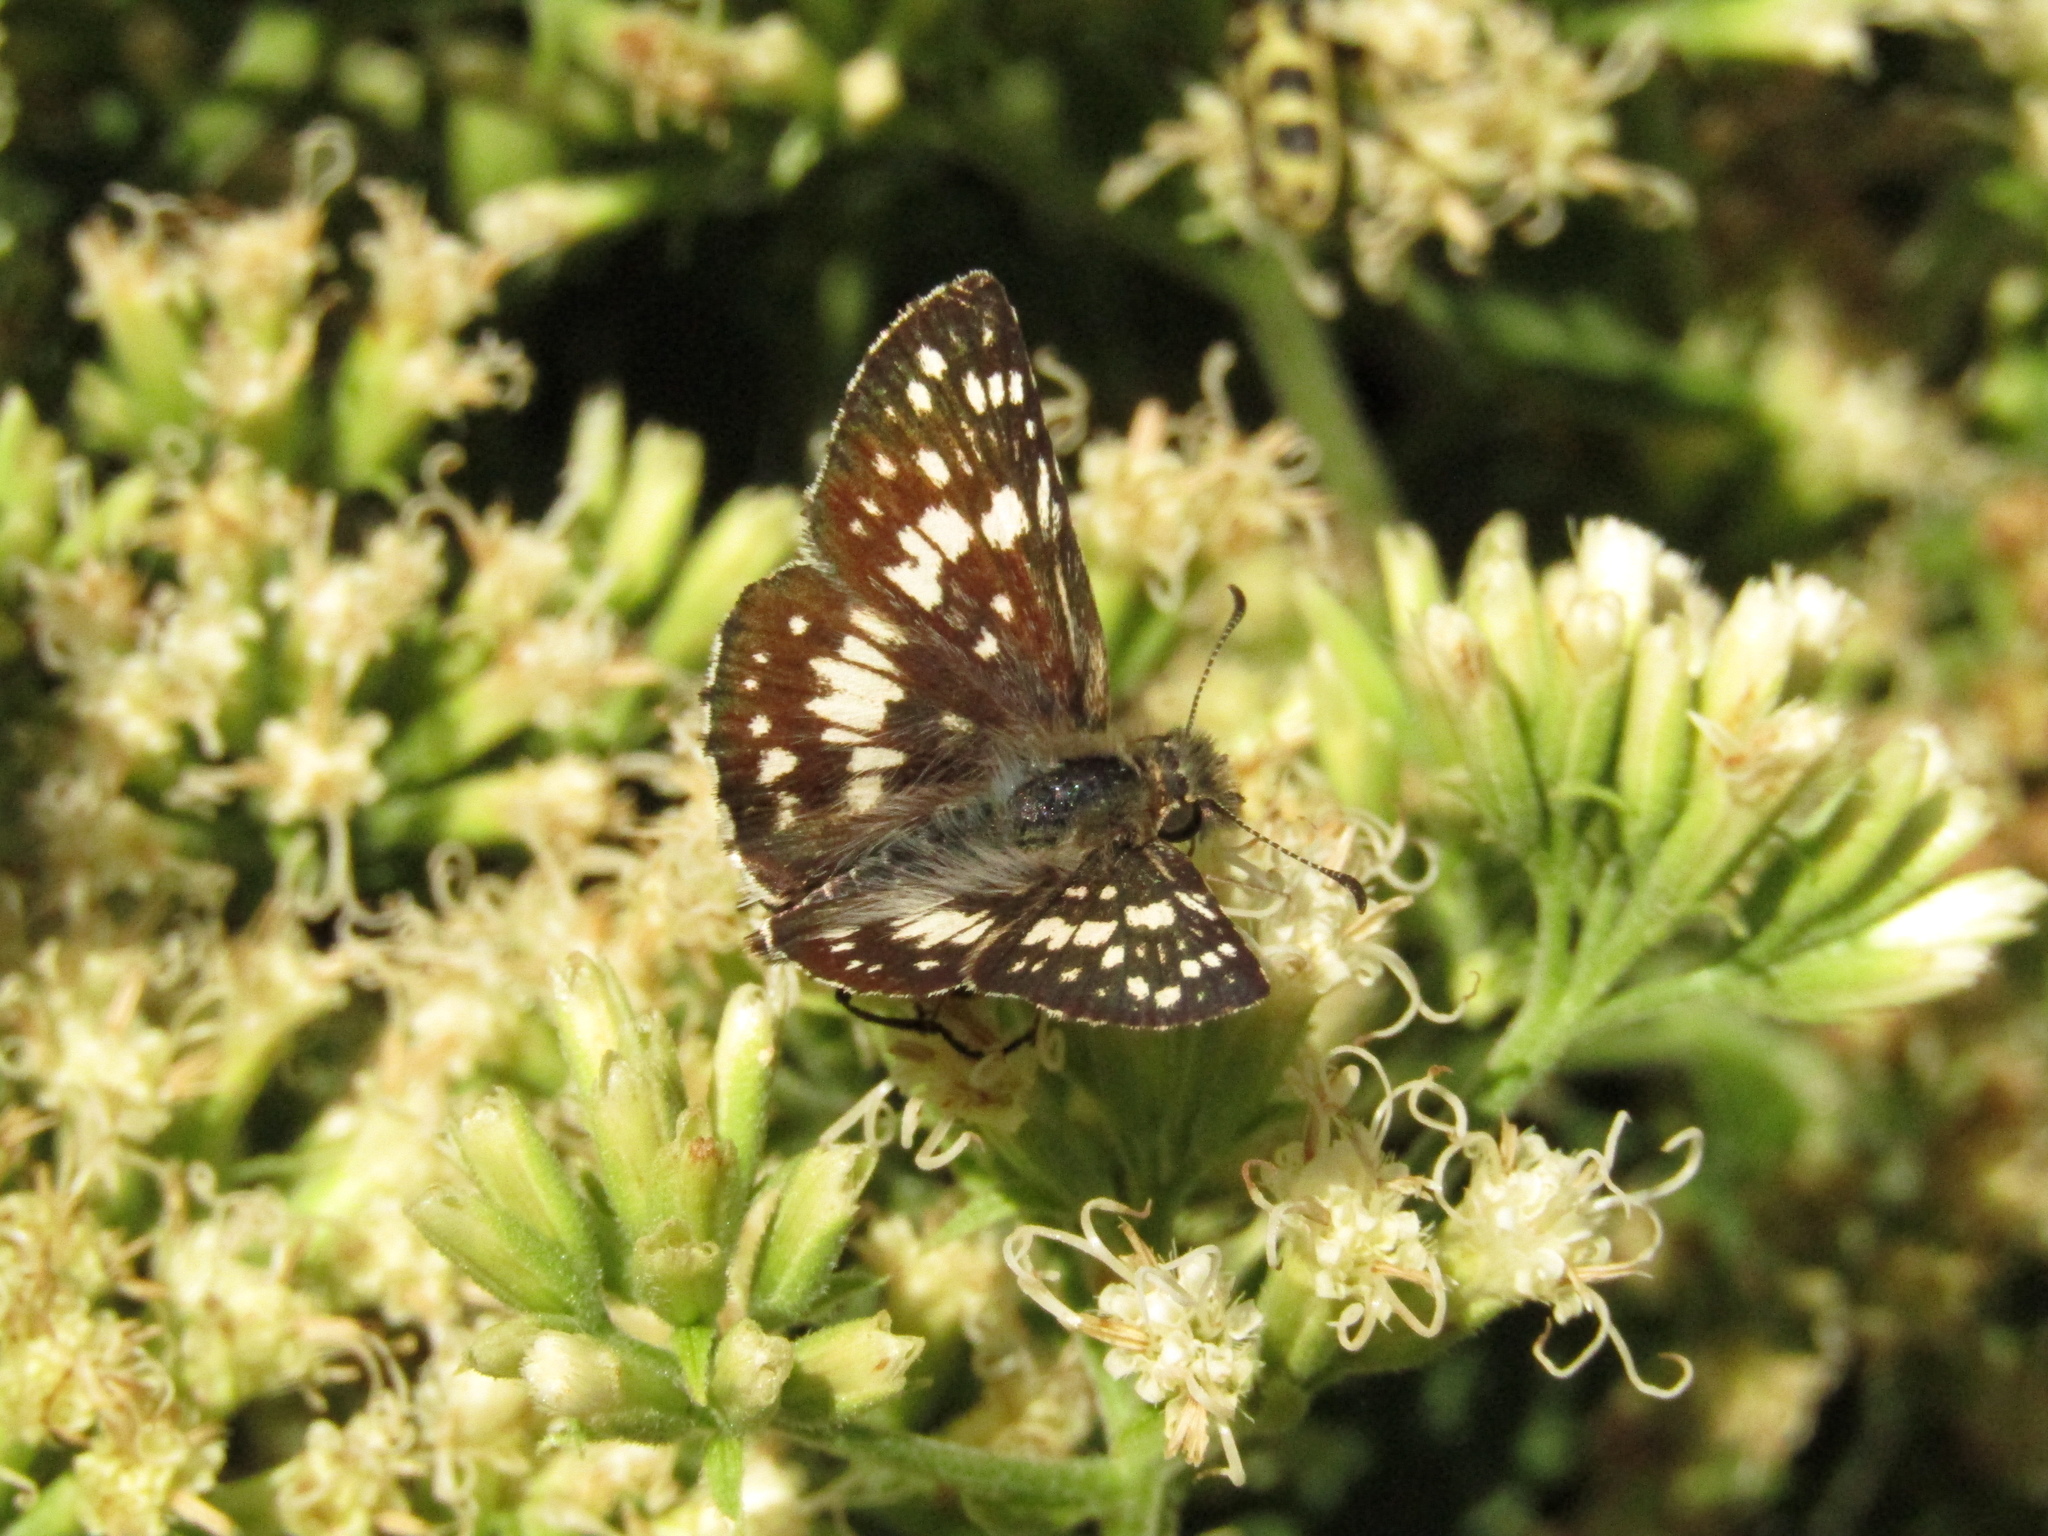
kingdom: Animalia
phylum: Arthropoda
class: Insecta
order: Lepidoptera
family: Hesperiidae
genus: Burnsius
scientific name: Burnsius orcynoides
